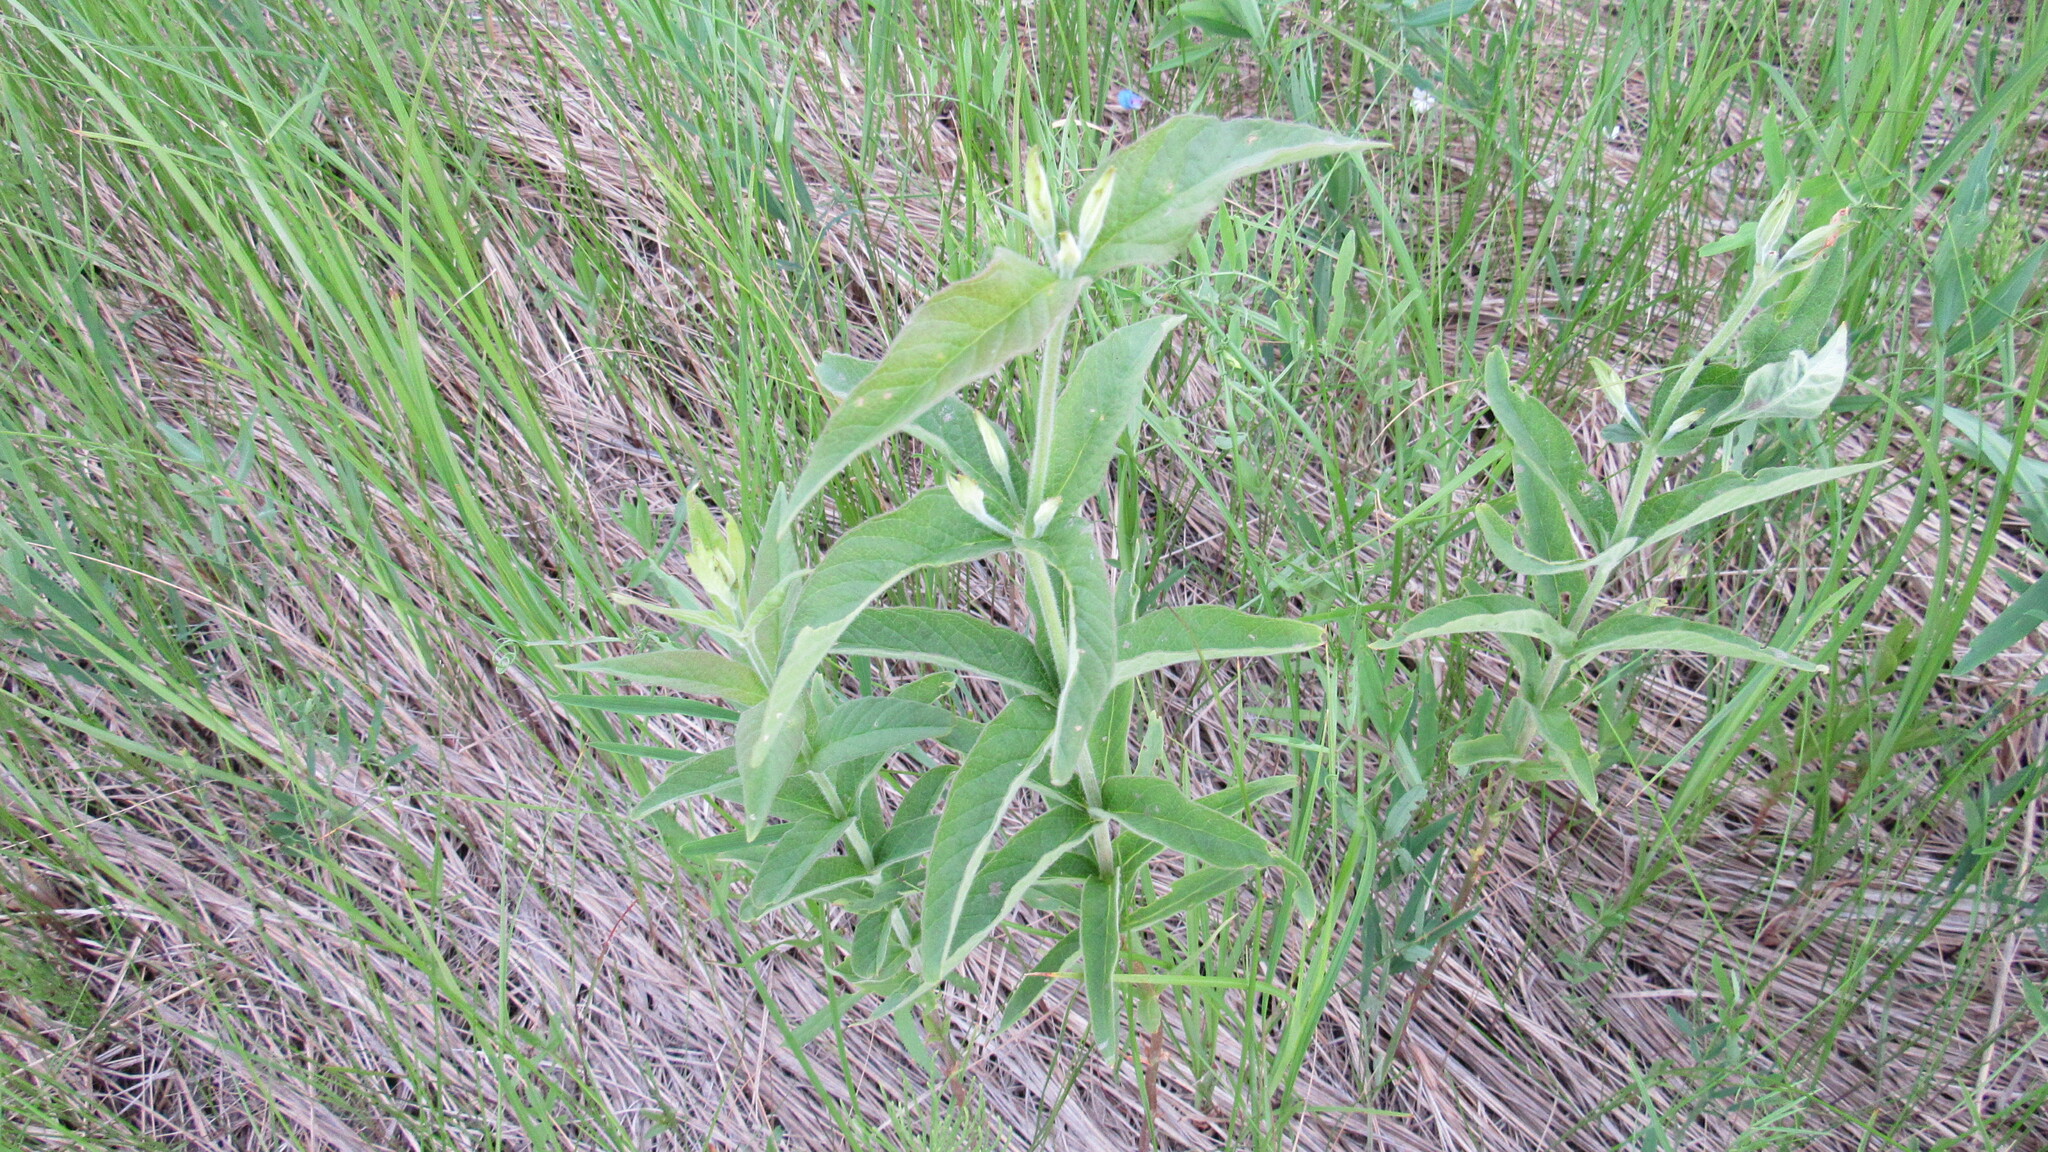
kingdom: Plantae
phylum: Tracheophyta
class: Magnoliopsida
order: Ericales
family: Primulaceae
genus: Lysimachia
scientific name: Lysimachia vulgaris
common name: Yellow loosestrife
